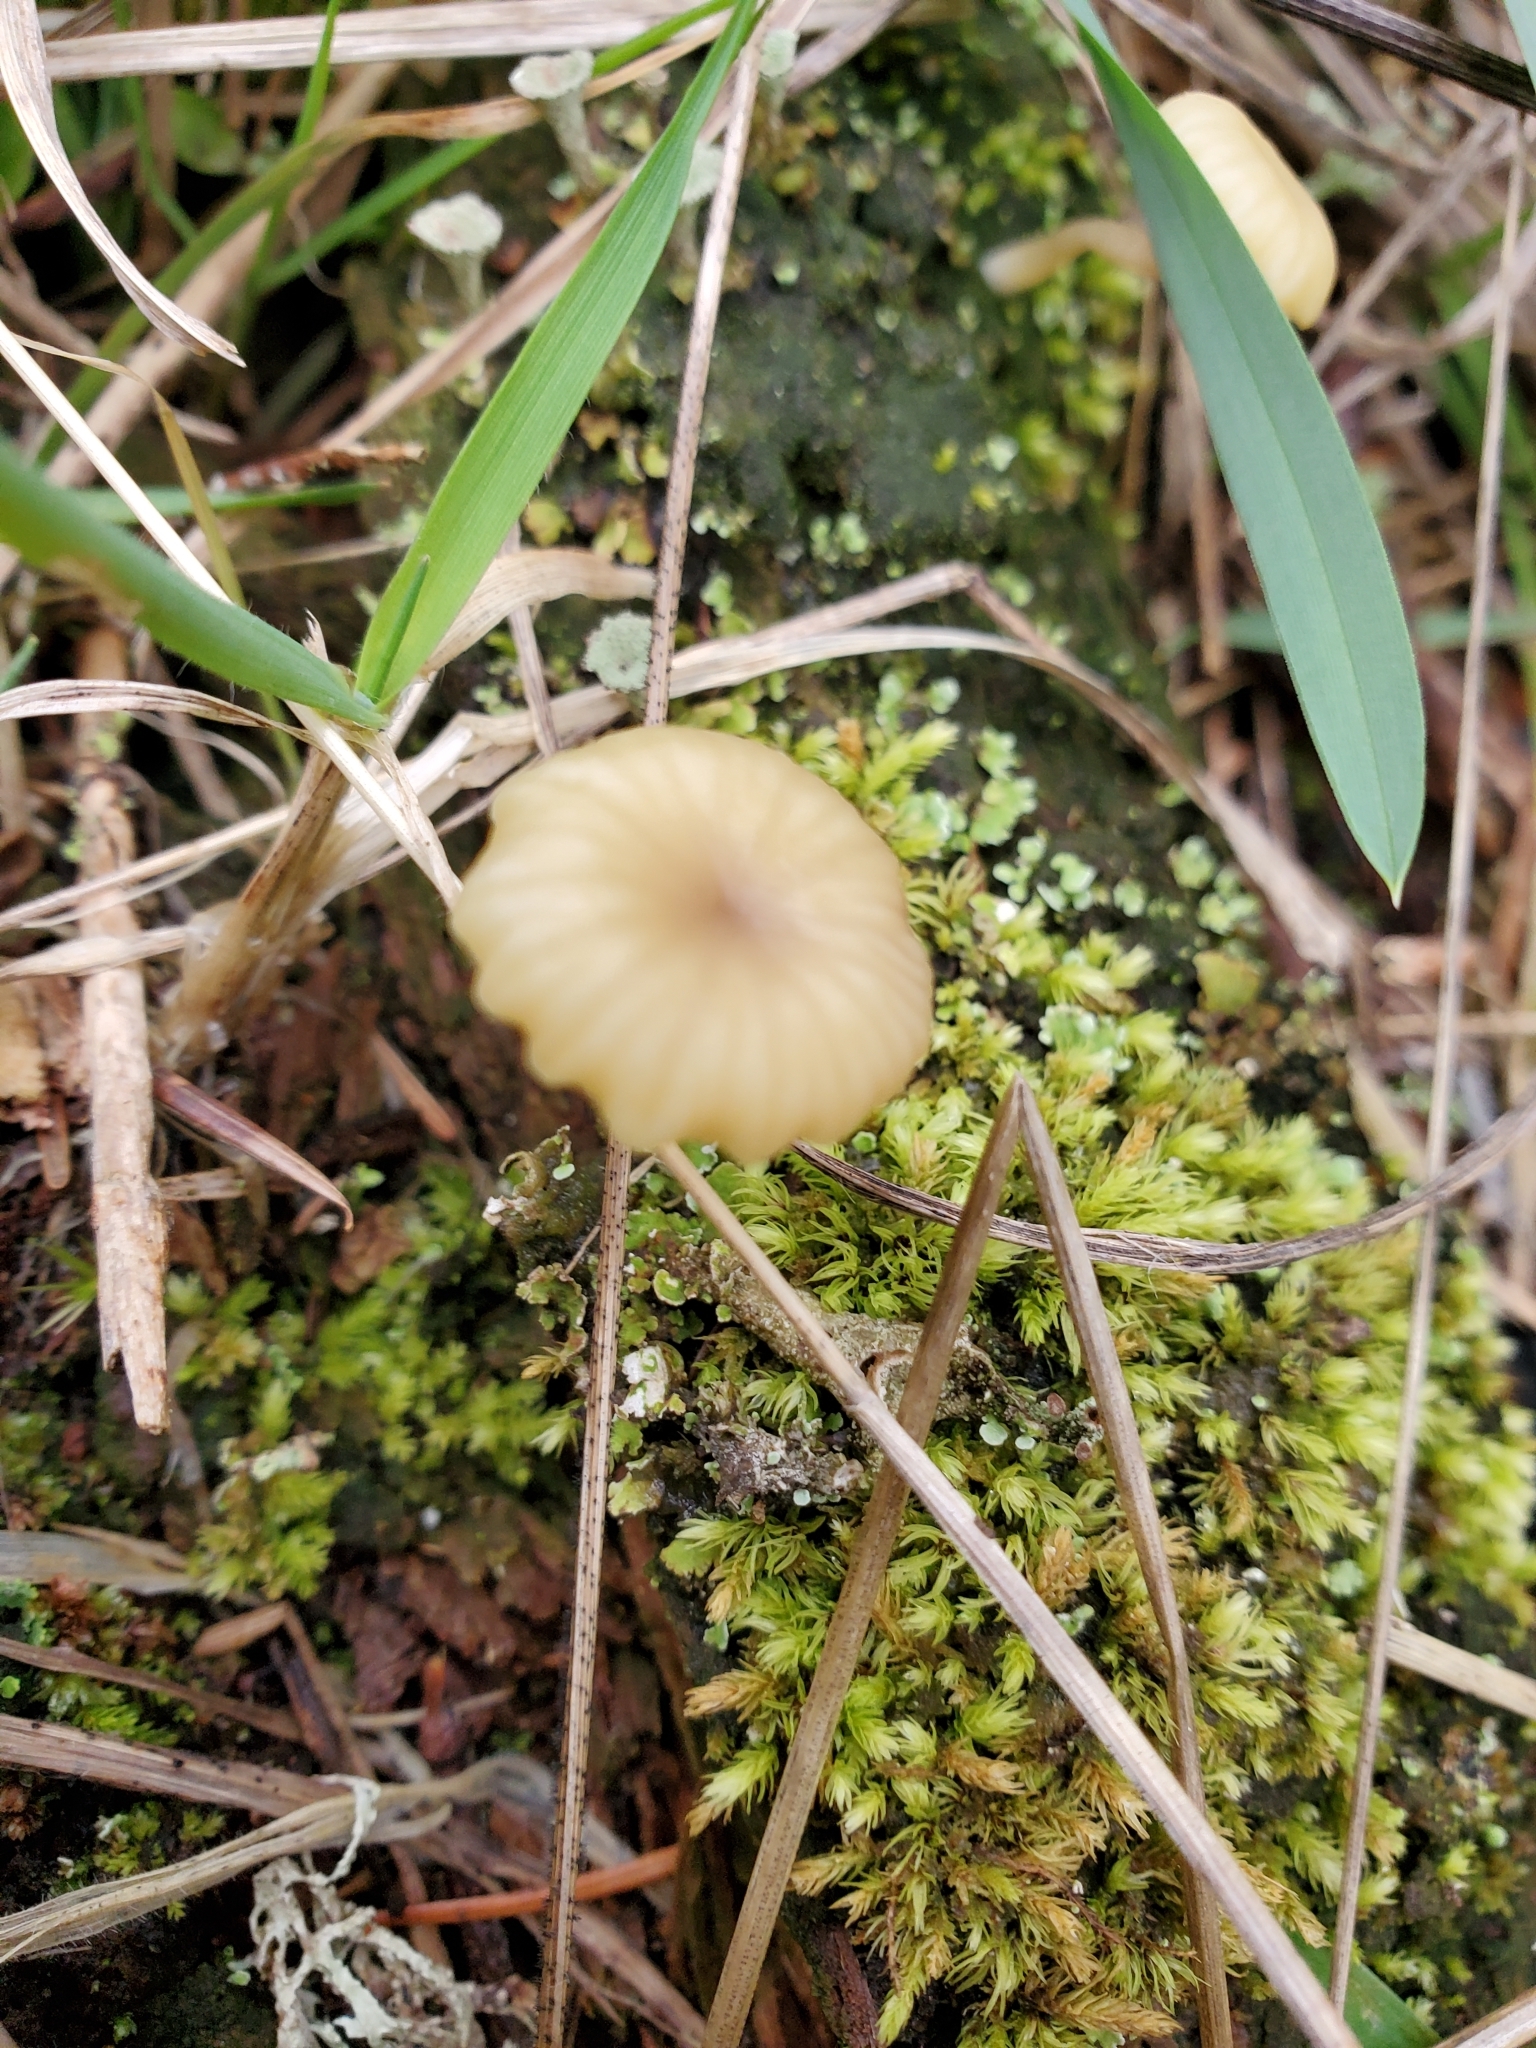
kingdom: Fungi
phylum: Basidiomycota
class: Agaricomycetes
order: Agaricales
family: Hygrophoraceae
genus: Lichenomphalia
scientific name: Lichenomphalia
